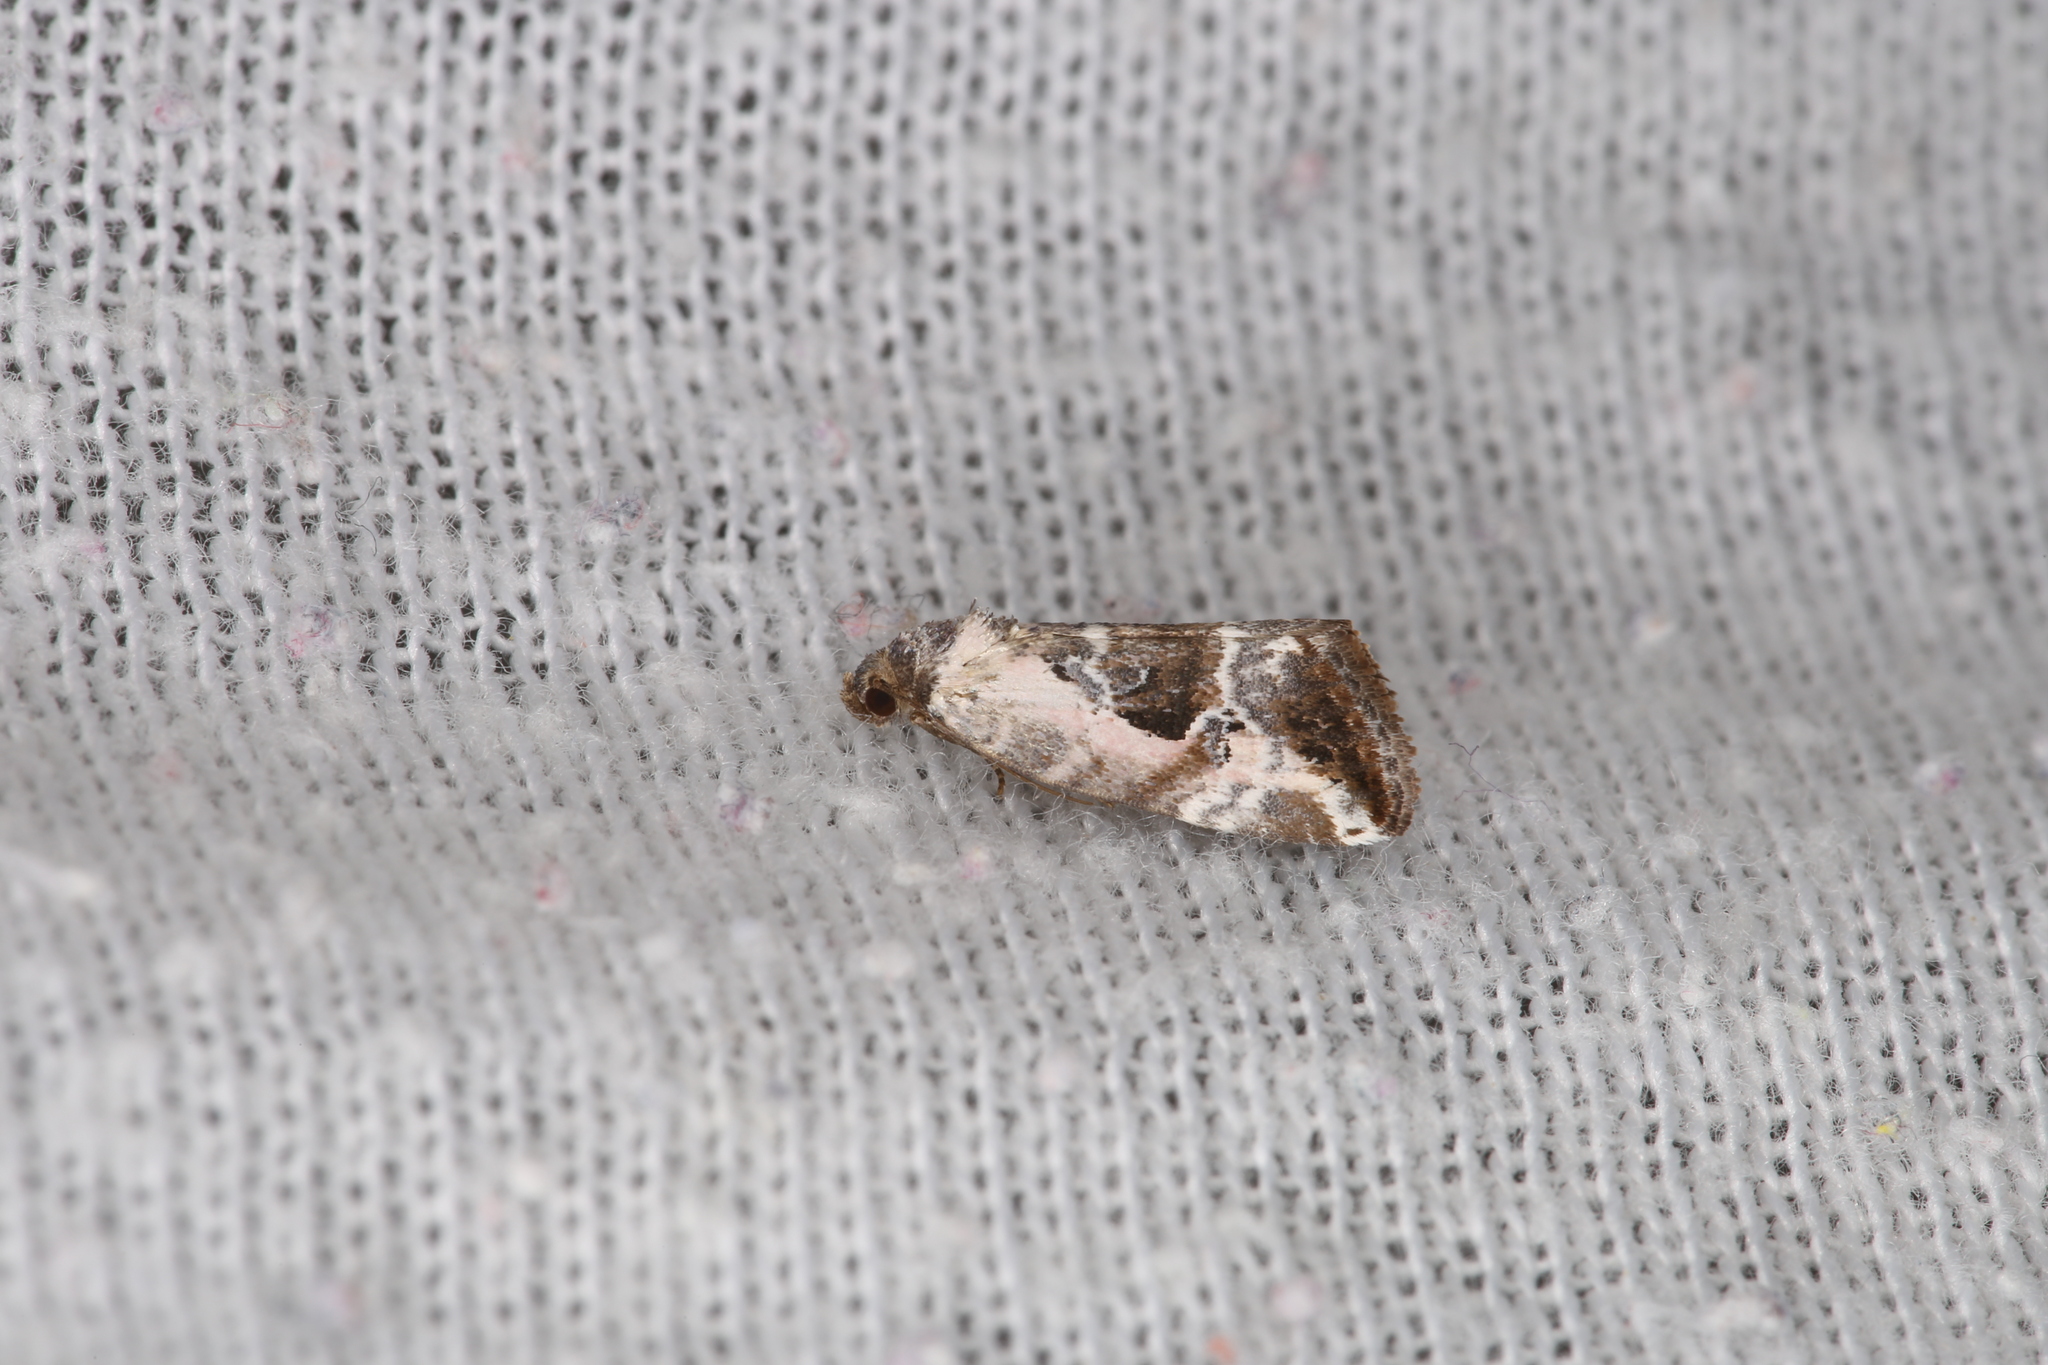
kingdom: Animalia
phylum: Arthropoda
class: Insecta
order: Lepidoptera
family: Noctuidae
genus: Elaphria
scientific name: Elaphria venustula
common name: Rosy marbled
